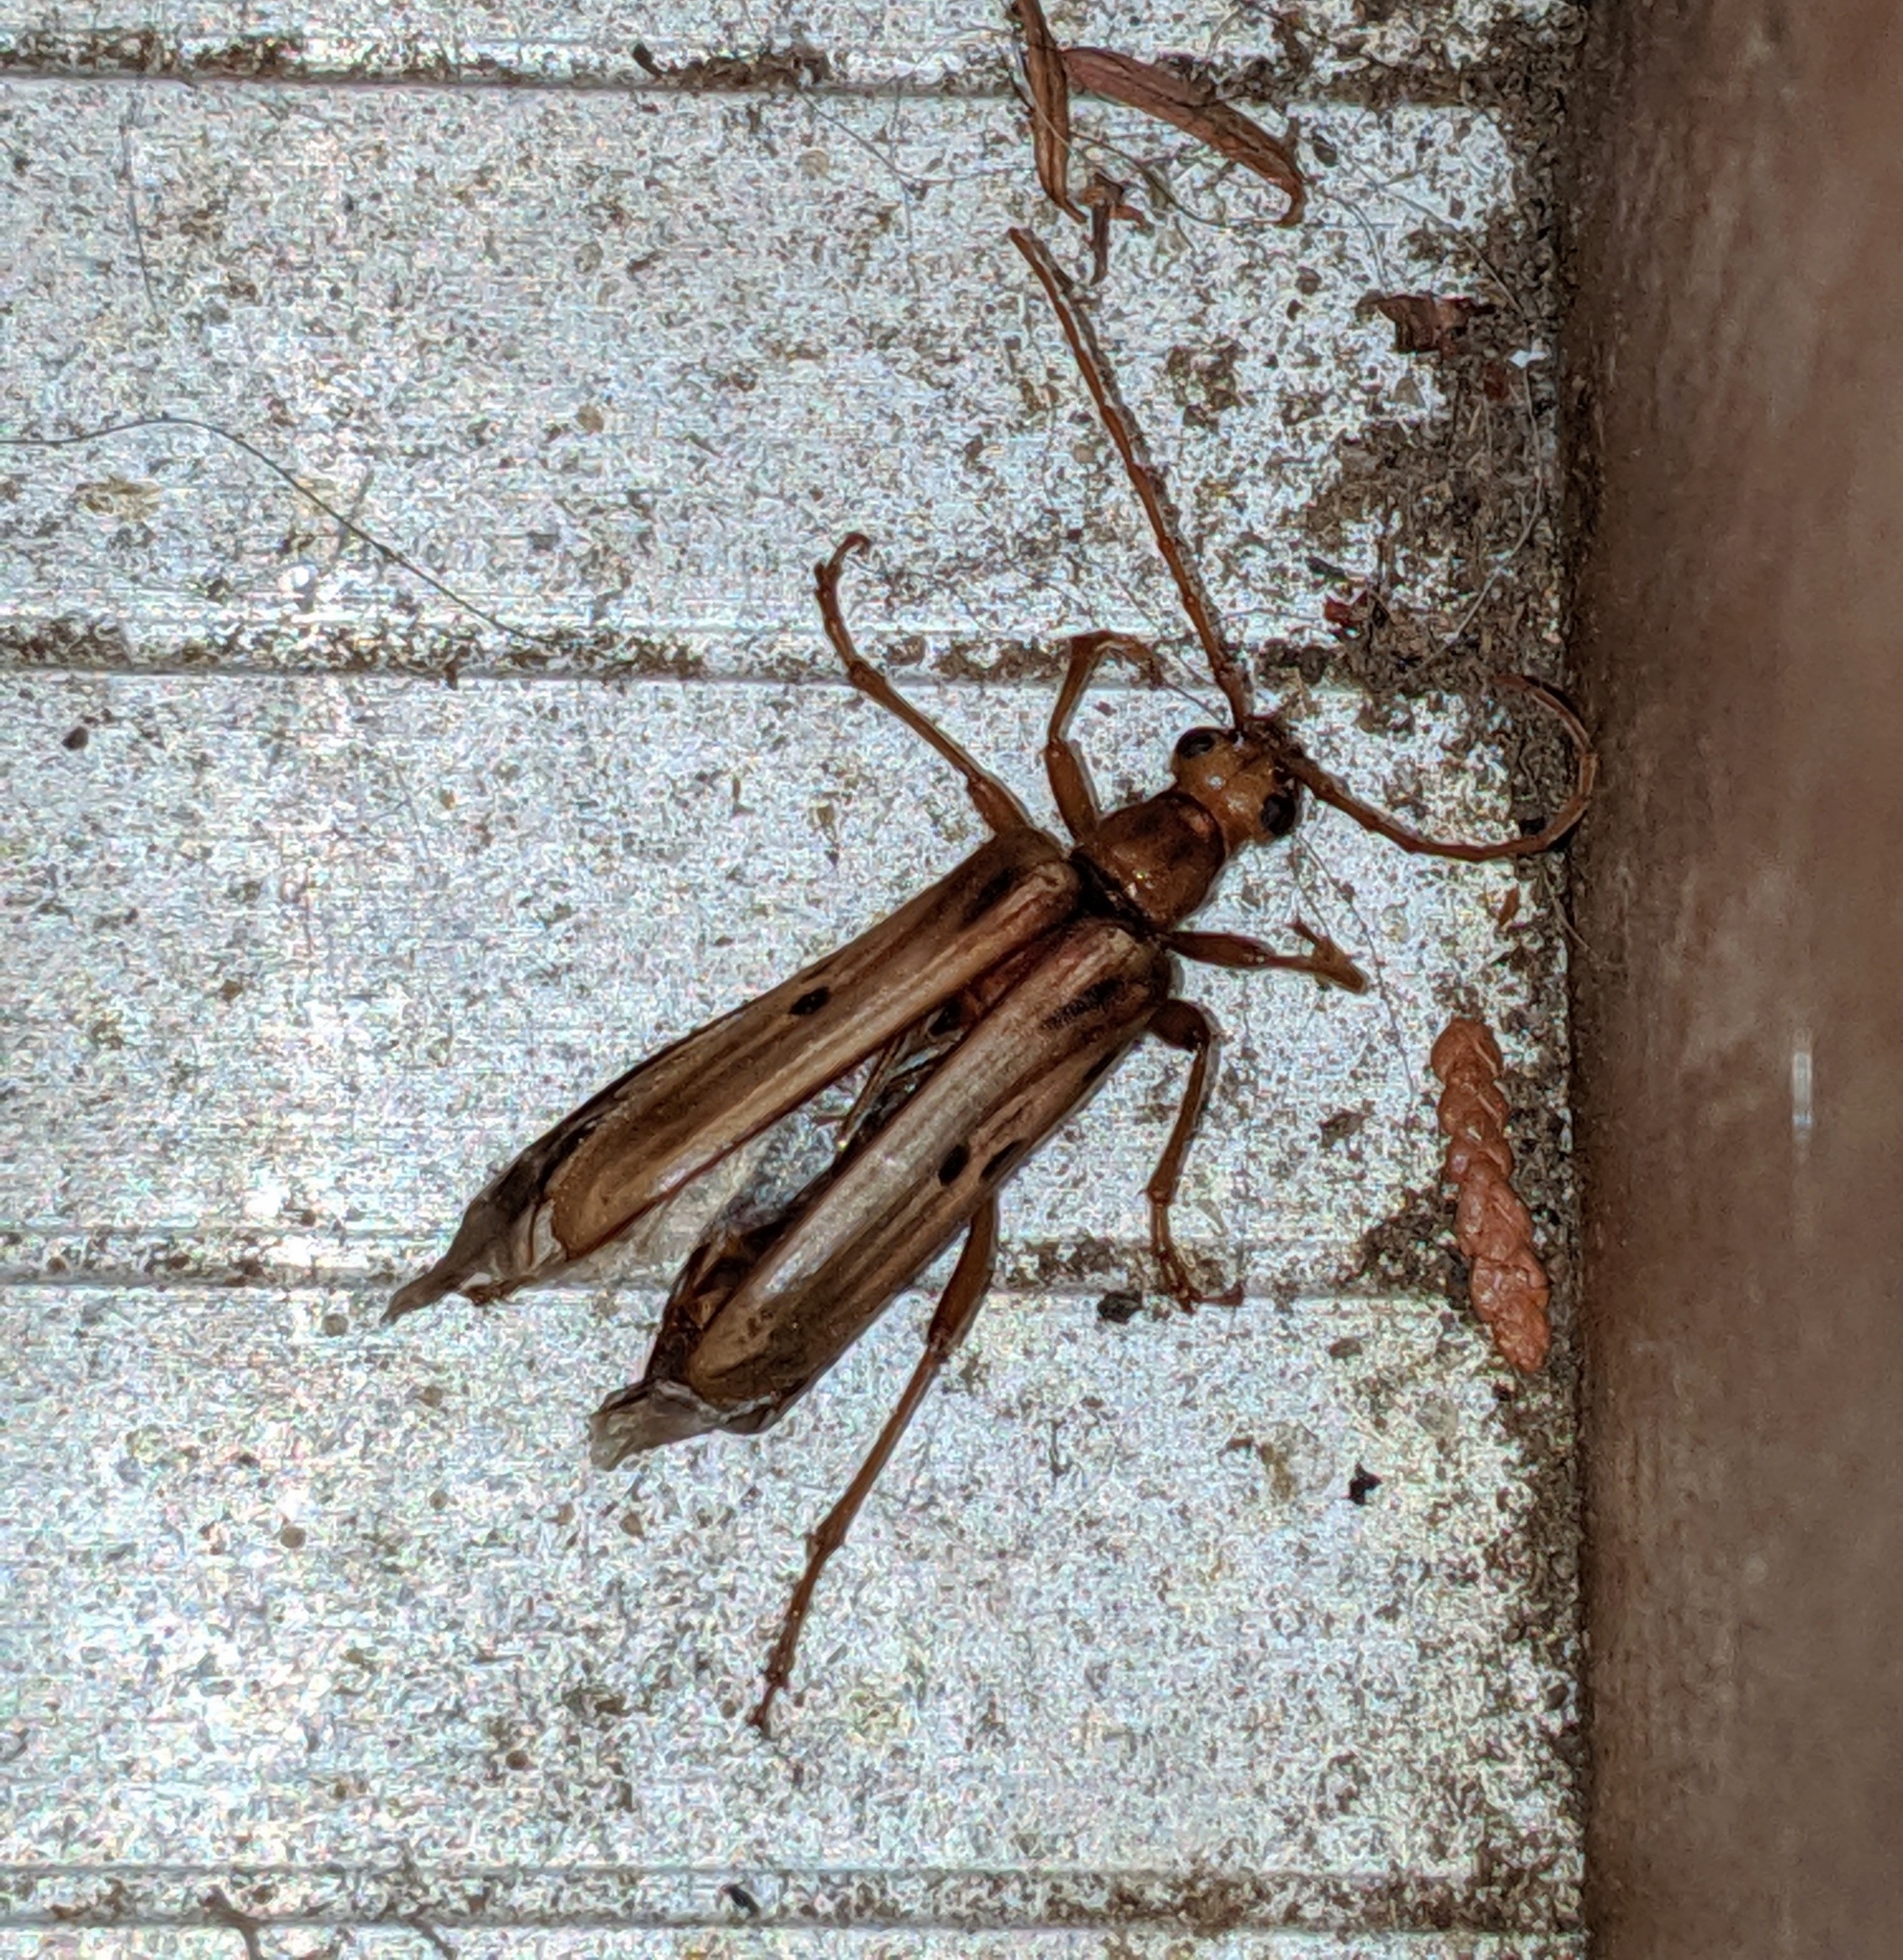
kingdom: Animalia
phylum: Arthropoda
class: Insecta
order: Coleoptera
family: Cerambycidae
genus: Ortholeptura
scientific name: Ortholeptura valida
